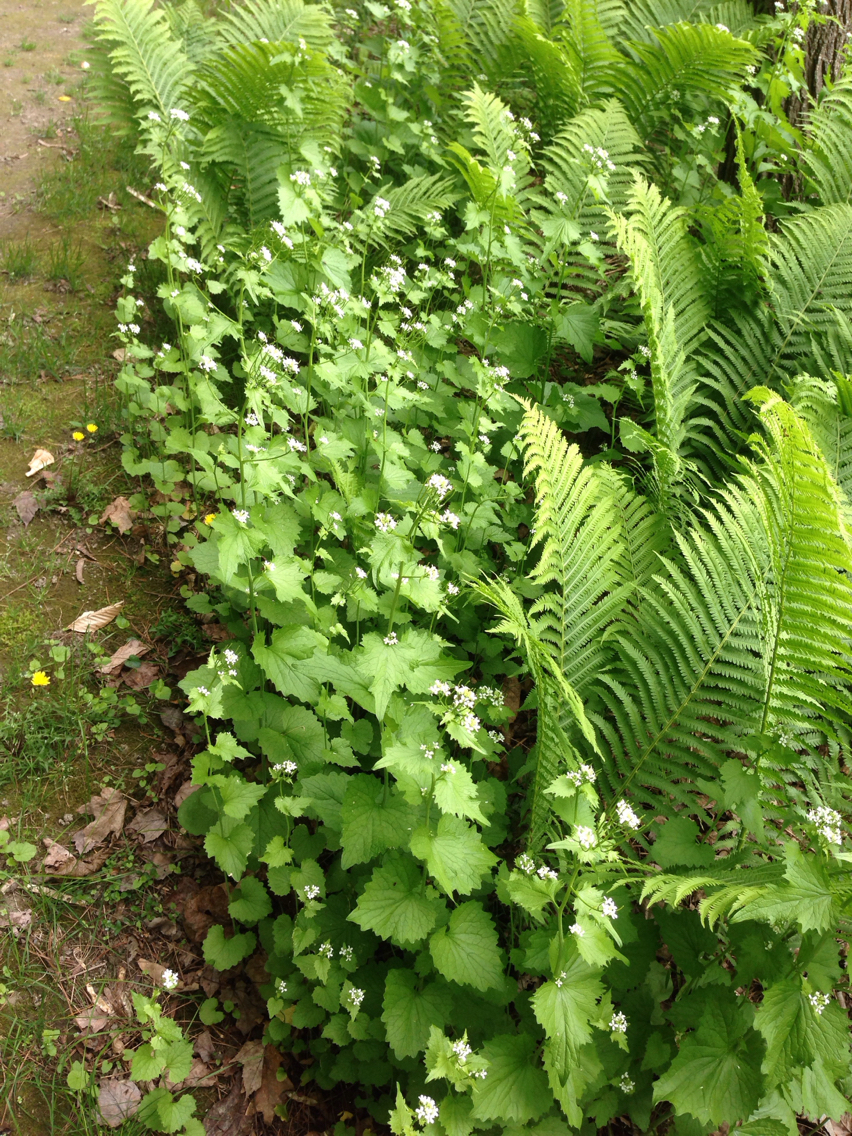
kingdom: Plantae
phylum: Tracheophyta
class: Magnoliopsida
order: Brassicales
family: Brassicaceae
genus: Alliaria
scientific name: Alliaria petiolata
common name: Garlic mustard
